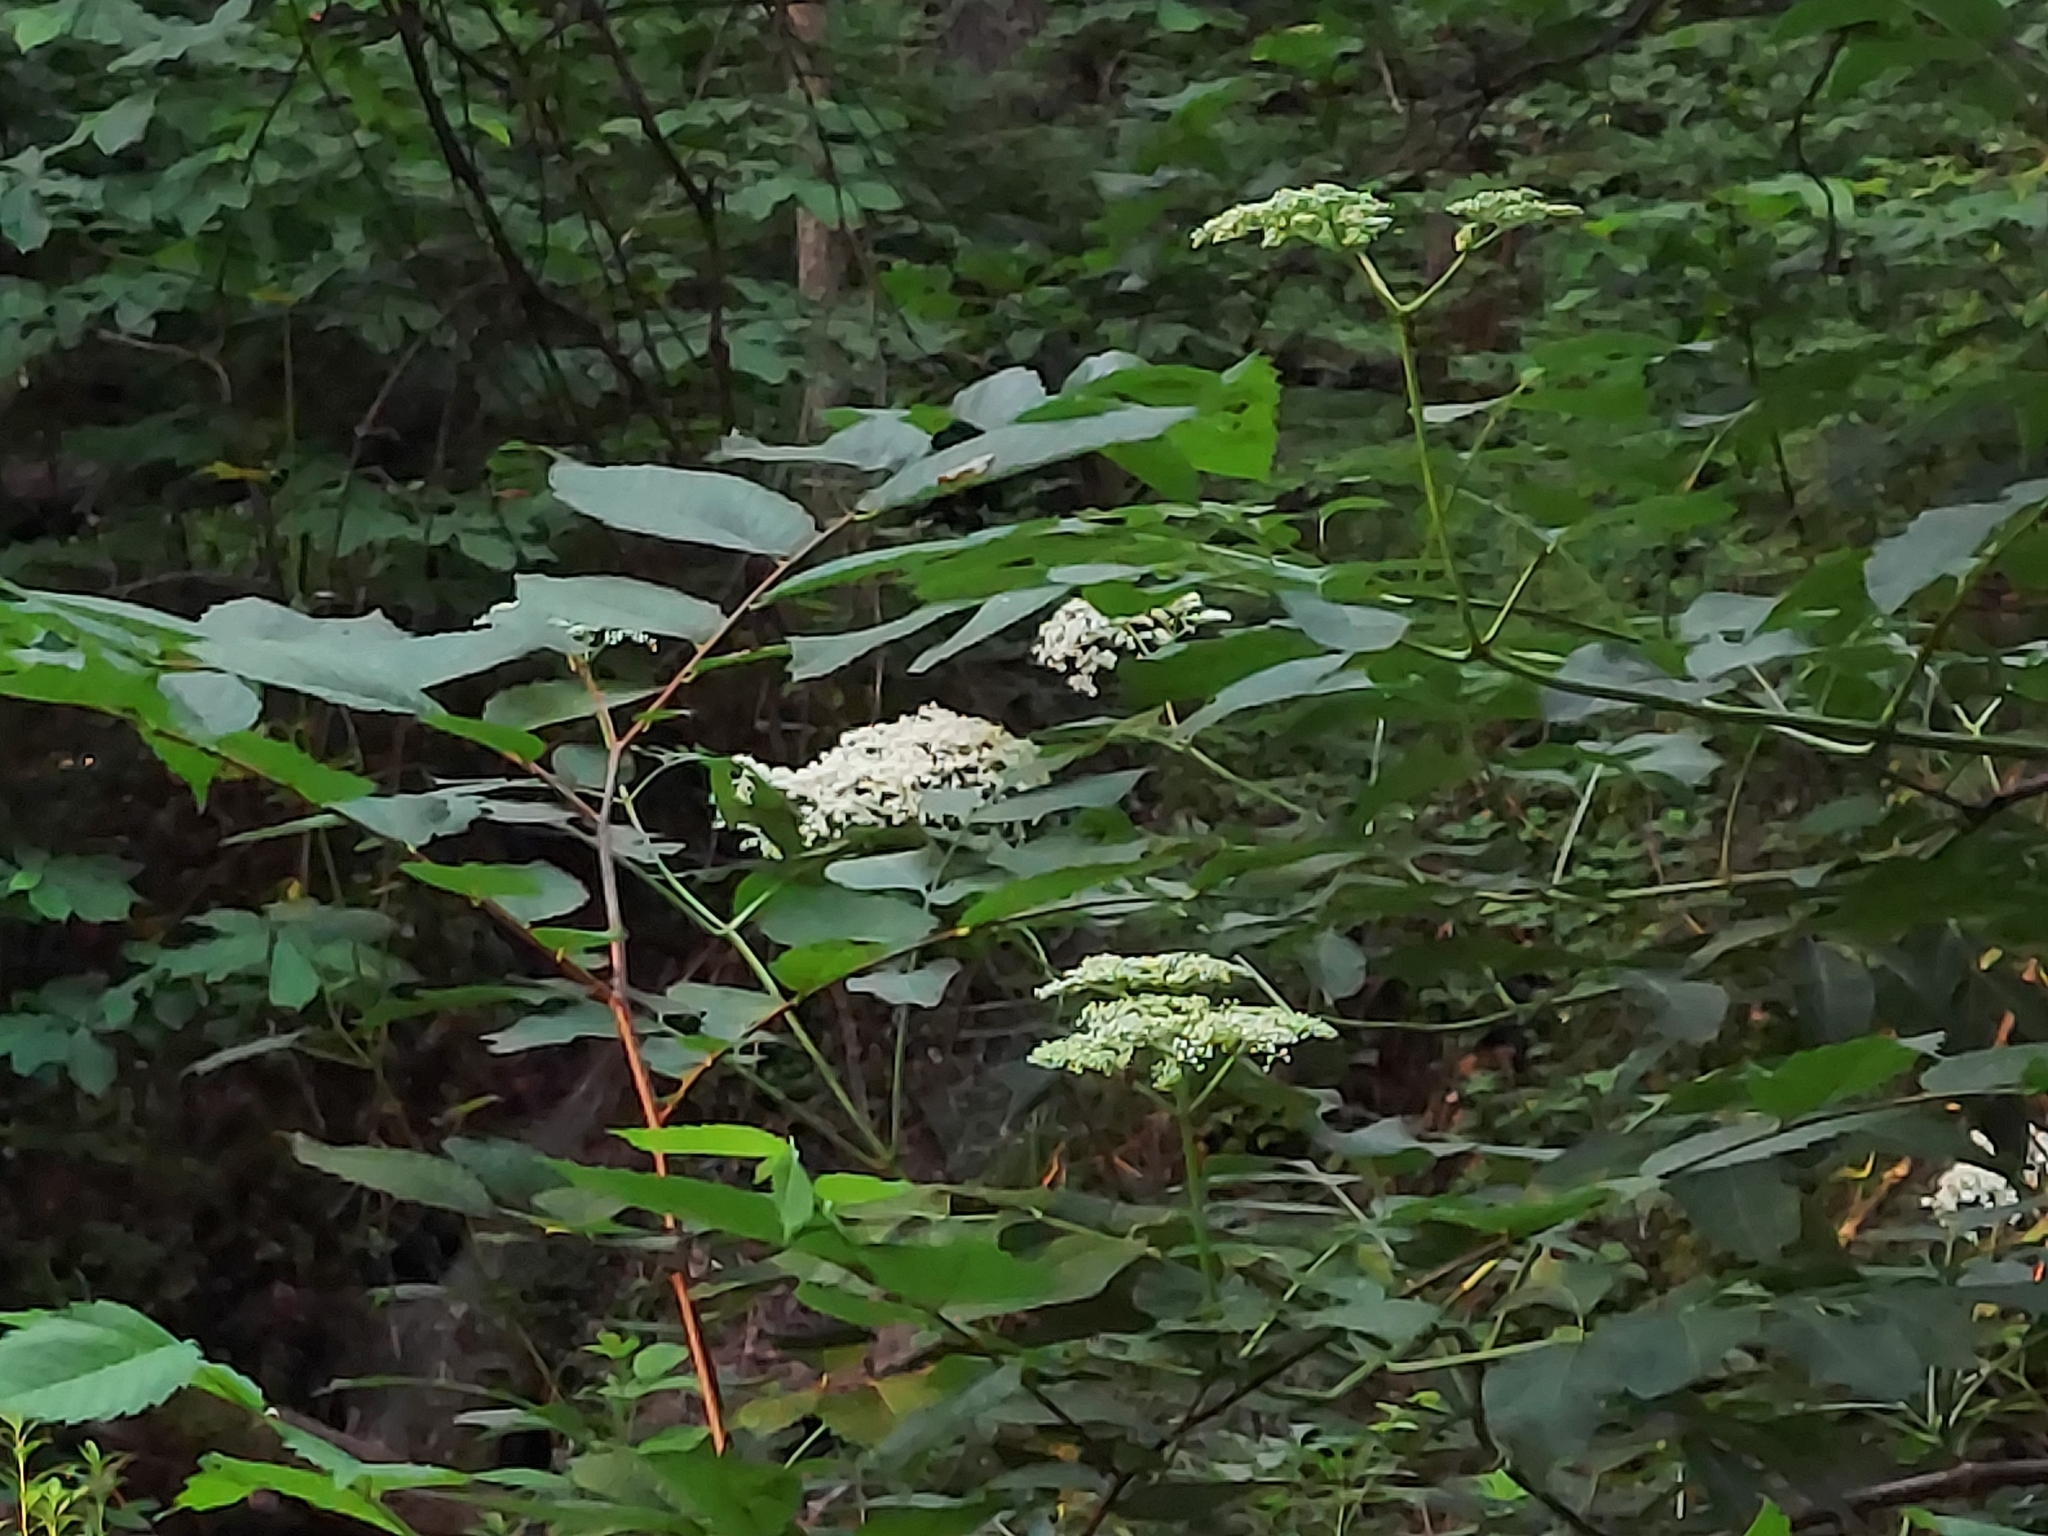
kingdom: Plantae
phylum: Tracheophyta
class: Magnoliopsida
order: Dipsacales
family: Viburnaceae
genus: Sambucus
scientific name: Sambucus canadensis
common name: American elder
